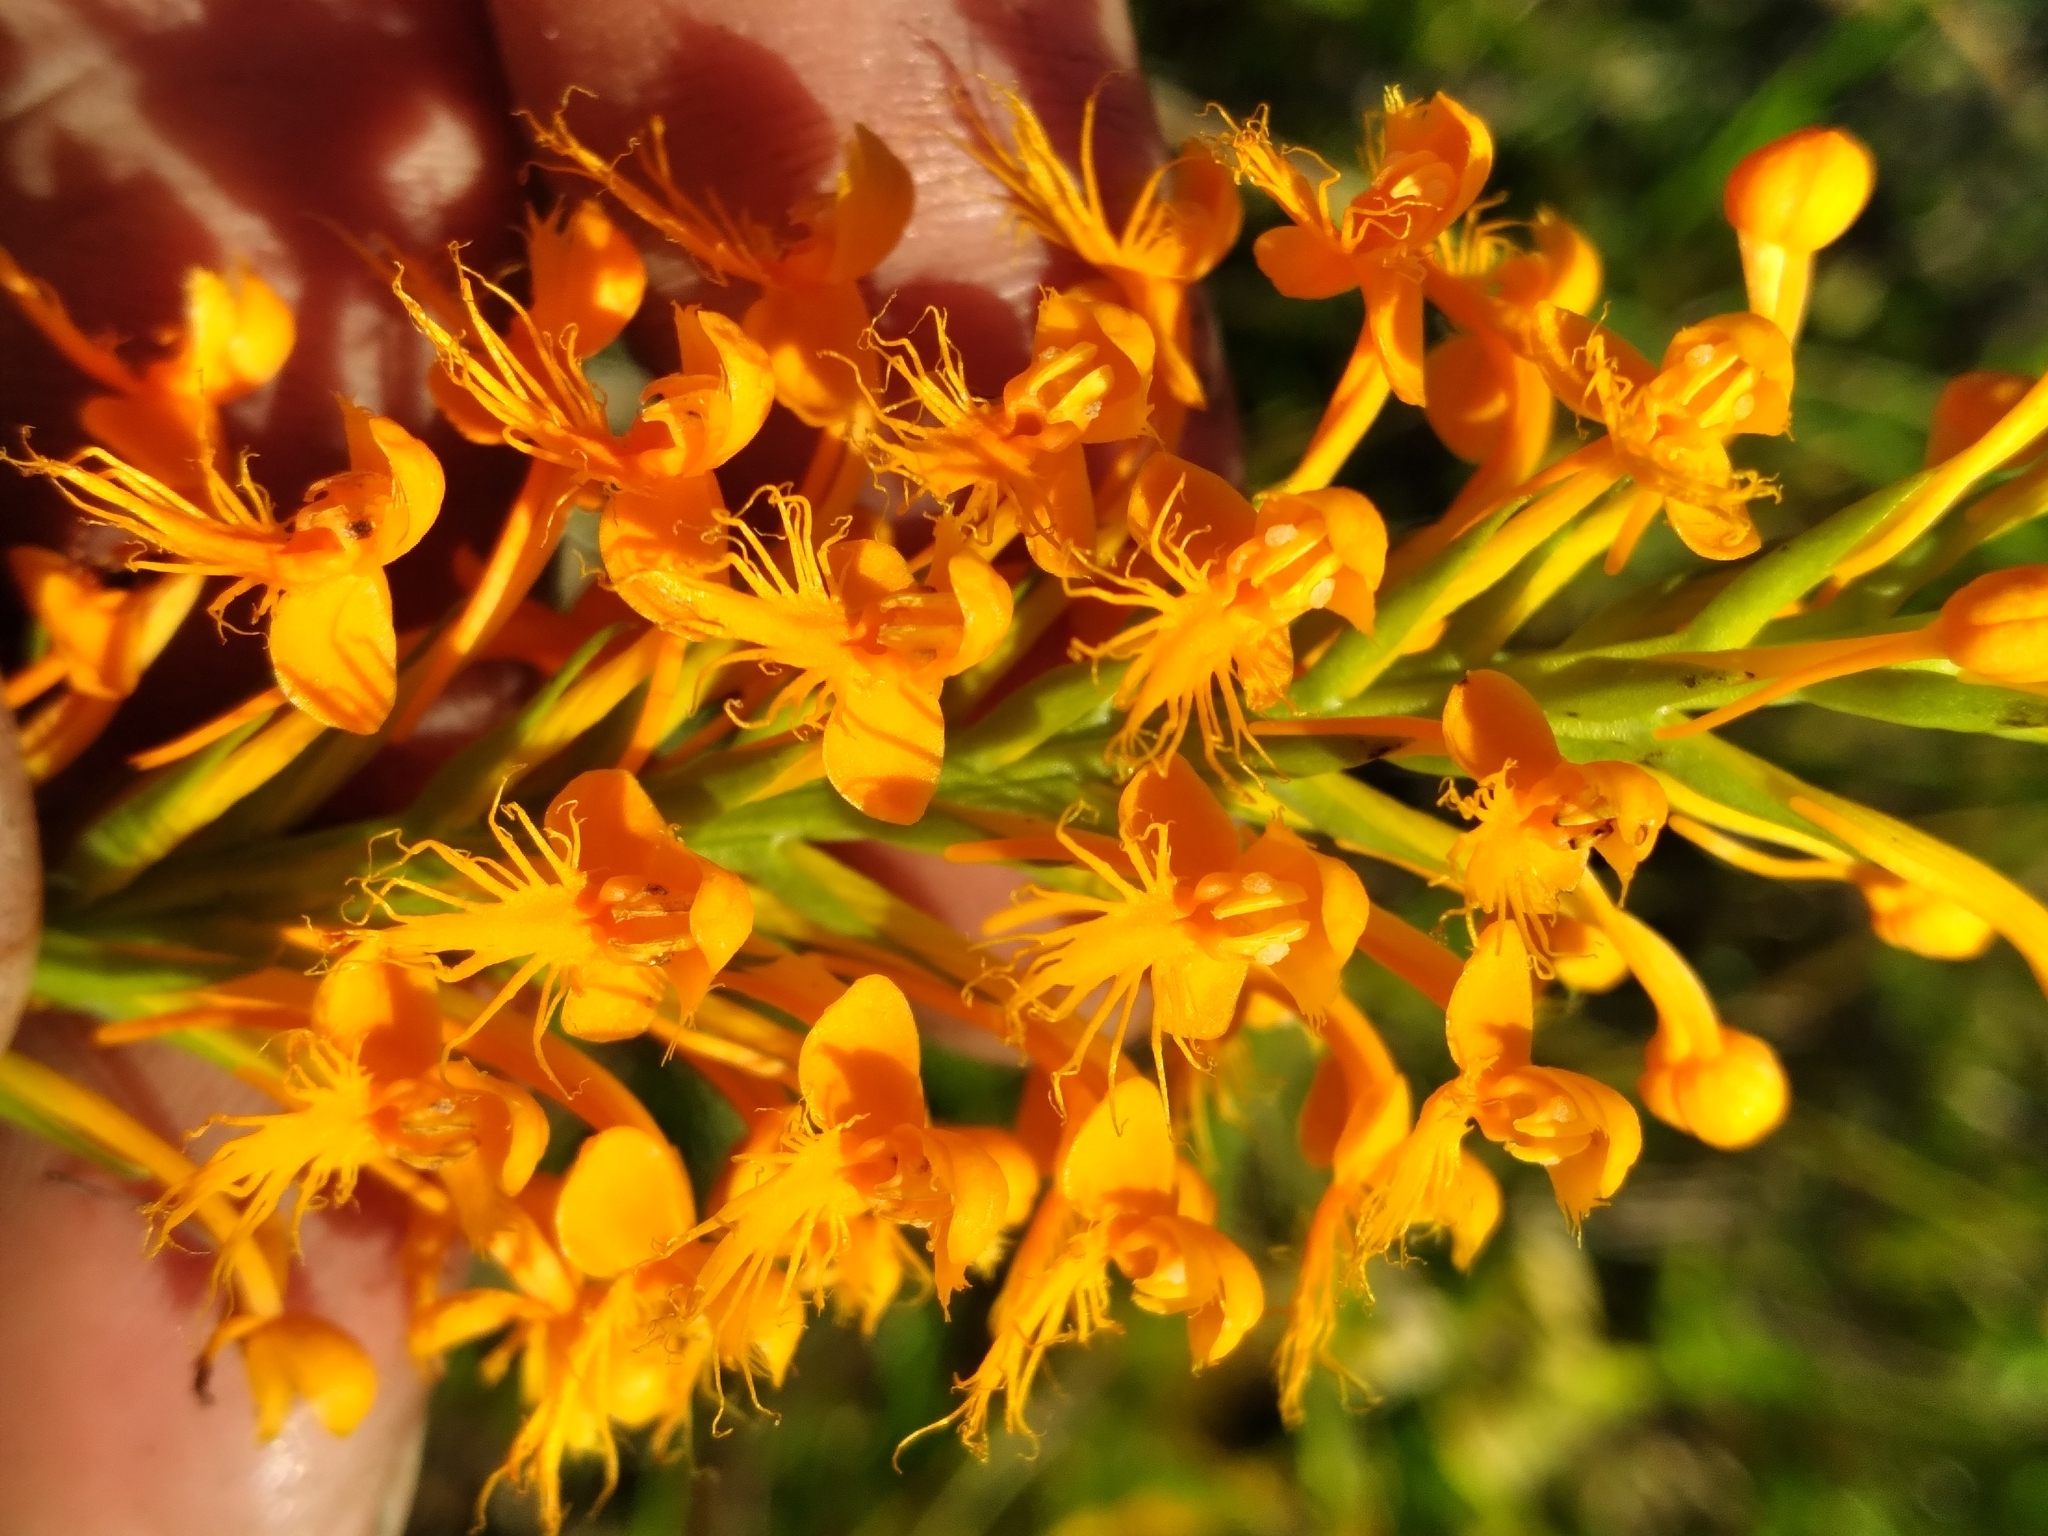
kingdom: Plantae
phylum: Tracheophyta
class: Liliopsida
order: Asparagales
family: Orchidaceae
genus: Platanthera
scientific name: Platanthera chapmanii
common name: Chapman’s fringed orchid
